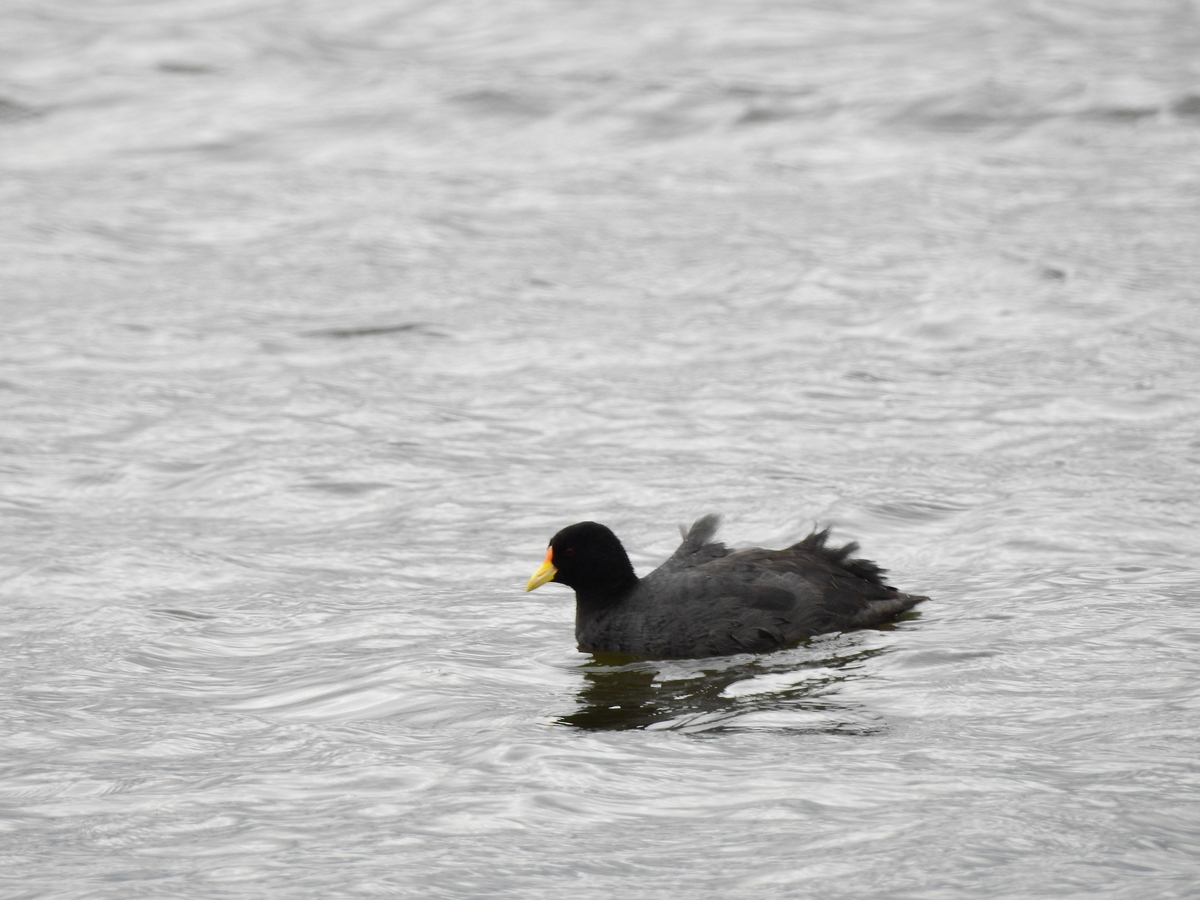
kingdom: Animalia
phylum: Chordata
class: Aves
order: Gruiformes
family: Rallidae
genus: Fulica
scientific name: Fulica leucoptera
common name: White-winged coot
